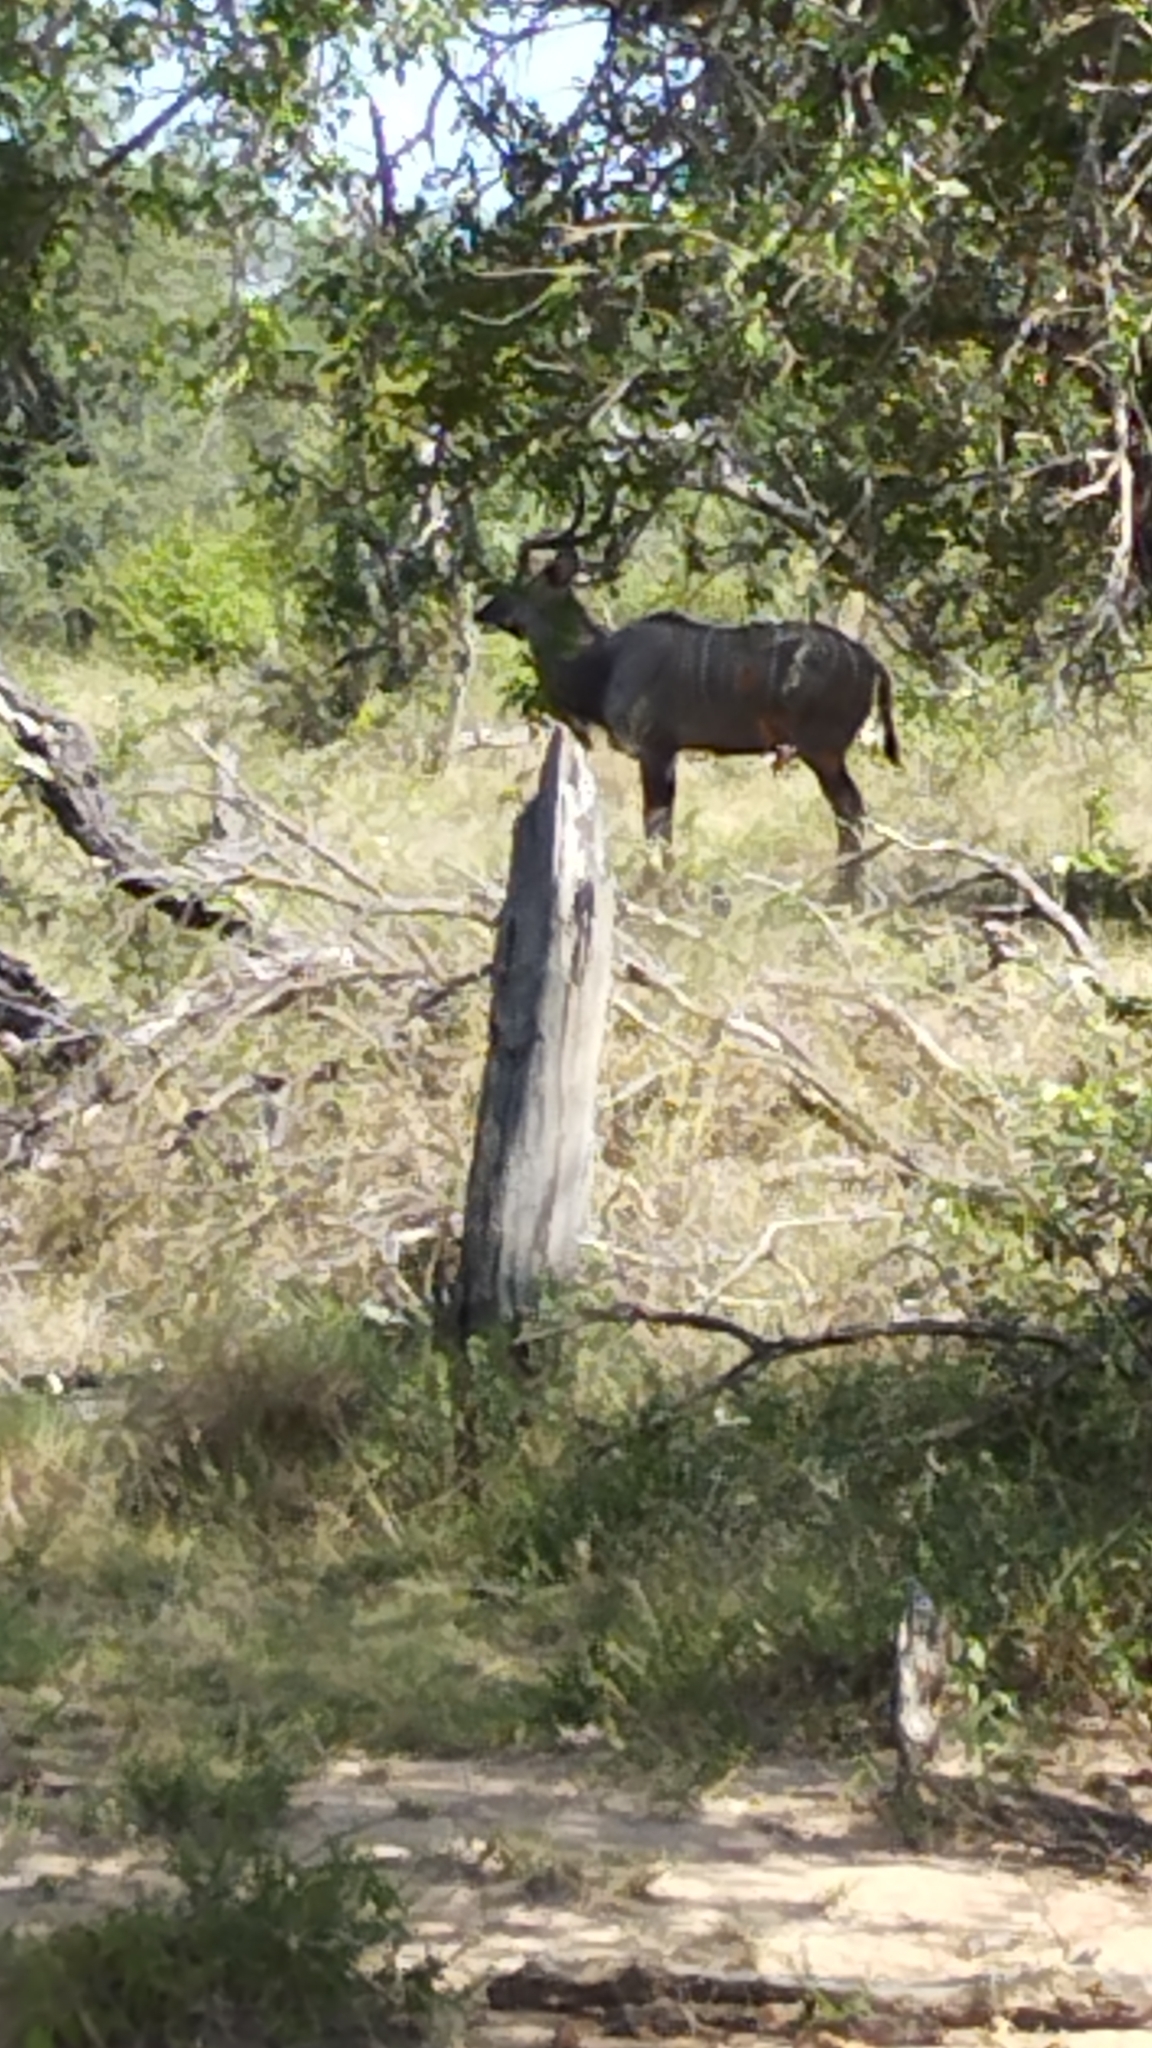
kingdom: Animalia
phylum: Chordata
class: Mammalia
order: Artiodactyla
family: Bovidae
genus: Tragelaphus
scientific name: Tragelaphus strepsiceros
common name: Greater kudu
